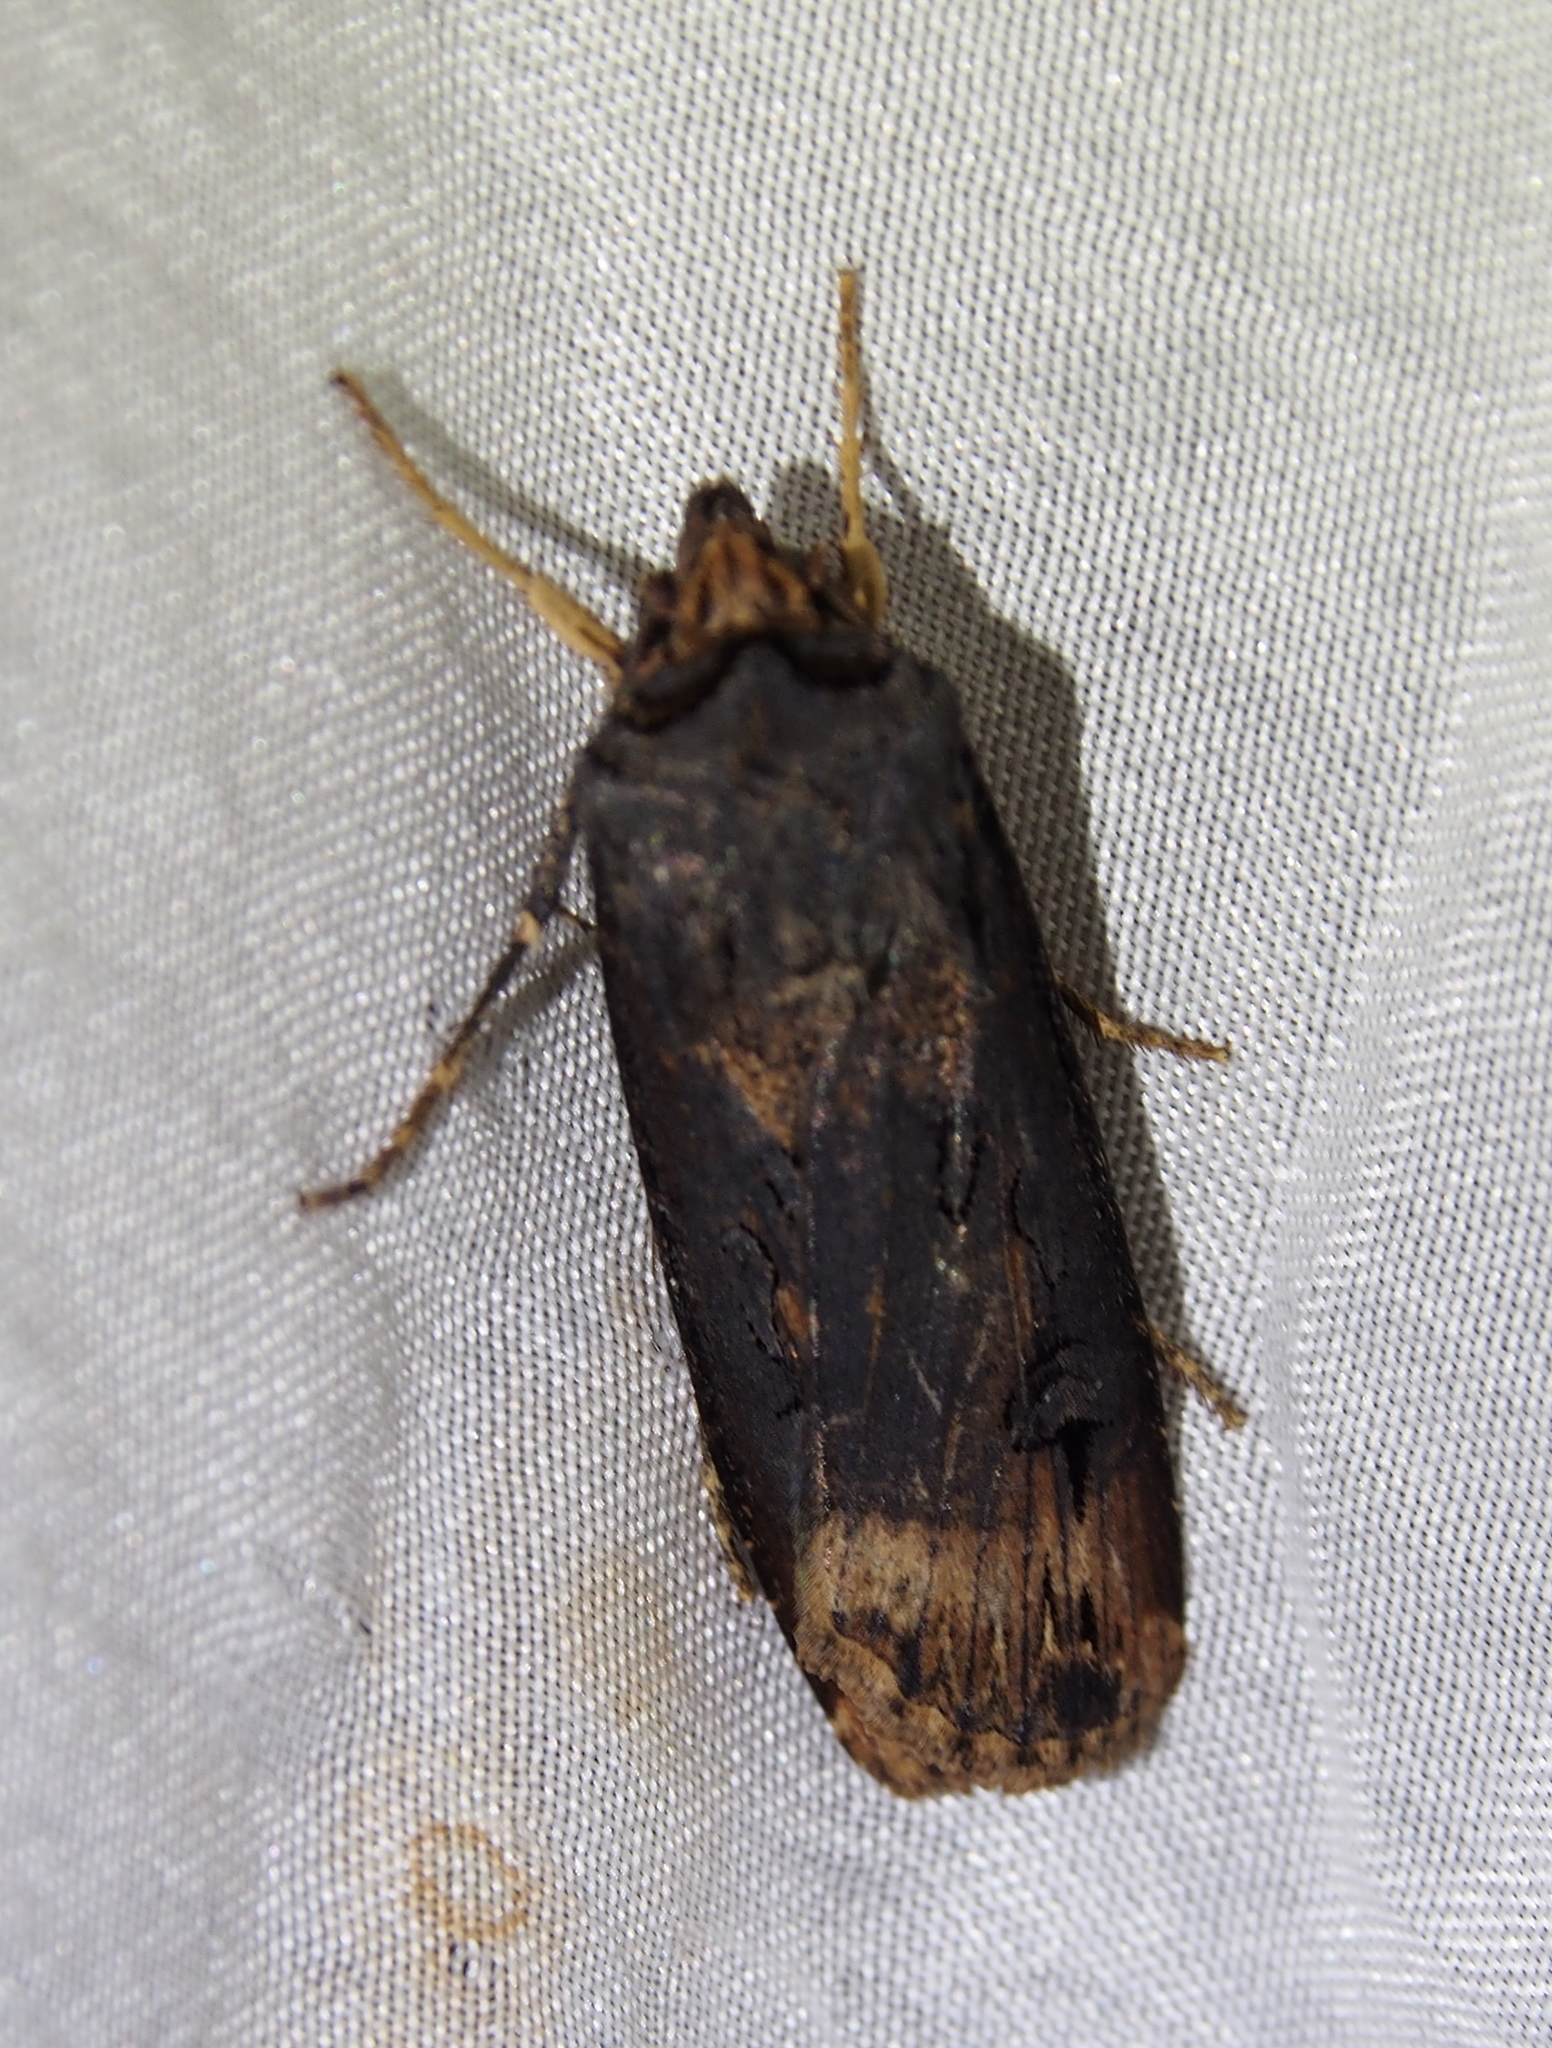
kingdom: Animalia
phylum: Arthropoda
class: Insecta
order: Lepidoptera
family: Noctuidae
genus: Agrotis
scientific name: Agrotis ipsilon
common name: Dark sword-grass
